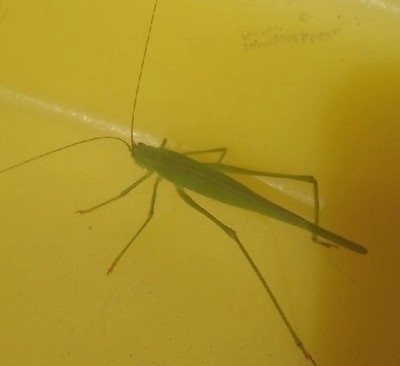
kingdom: Animalia
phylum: Arthropoda
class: Insecta
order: Orthoptera
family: Tettigoniidae
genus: Phaneroptera
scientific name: Phaneroptera falcata
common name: Sickle-bearing bush-cricket
